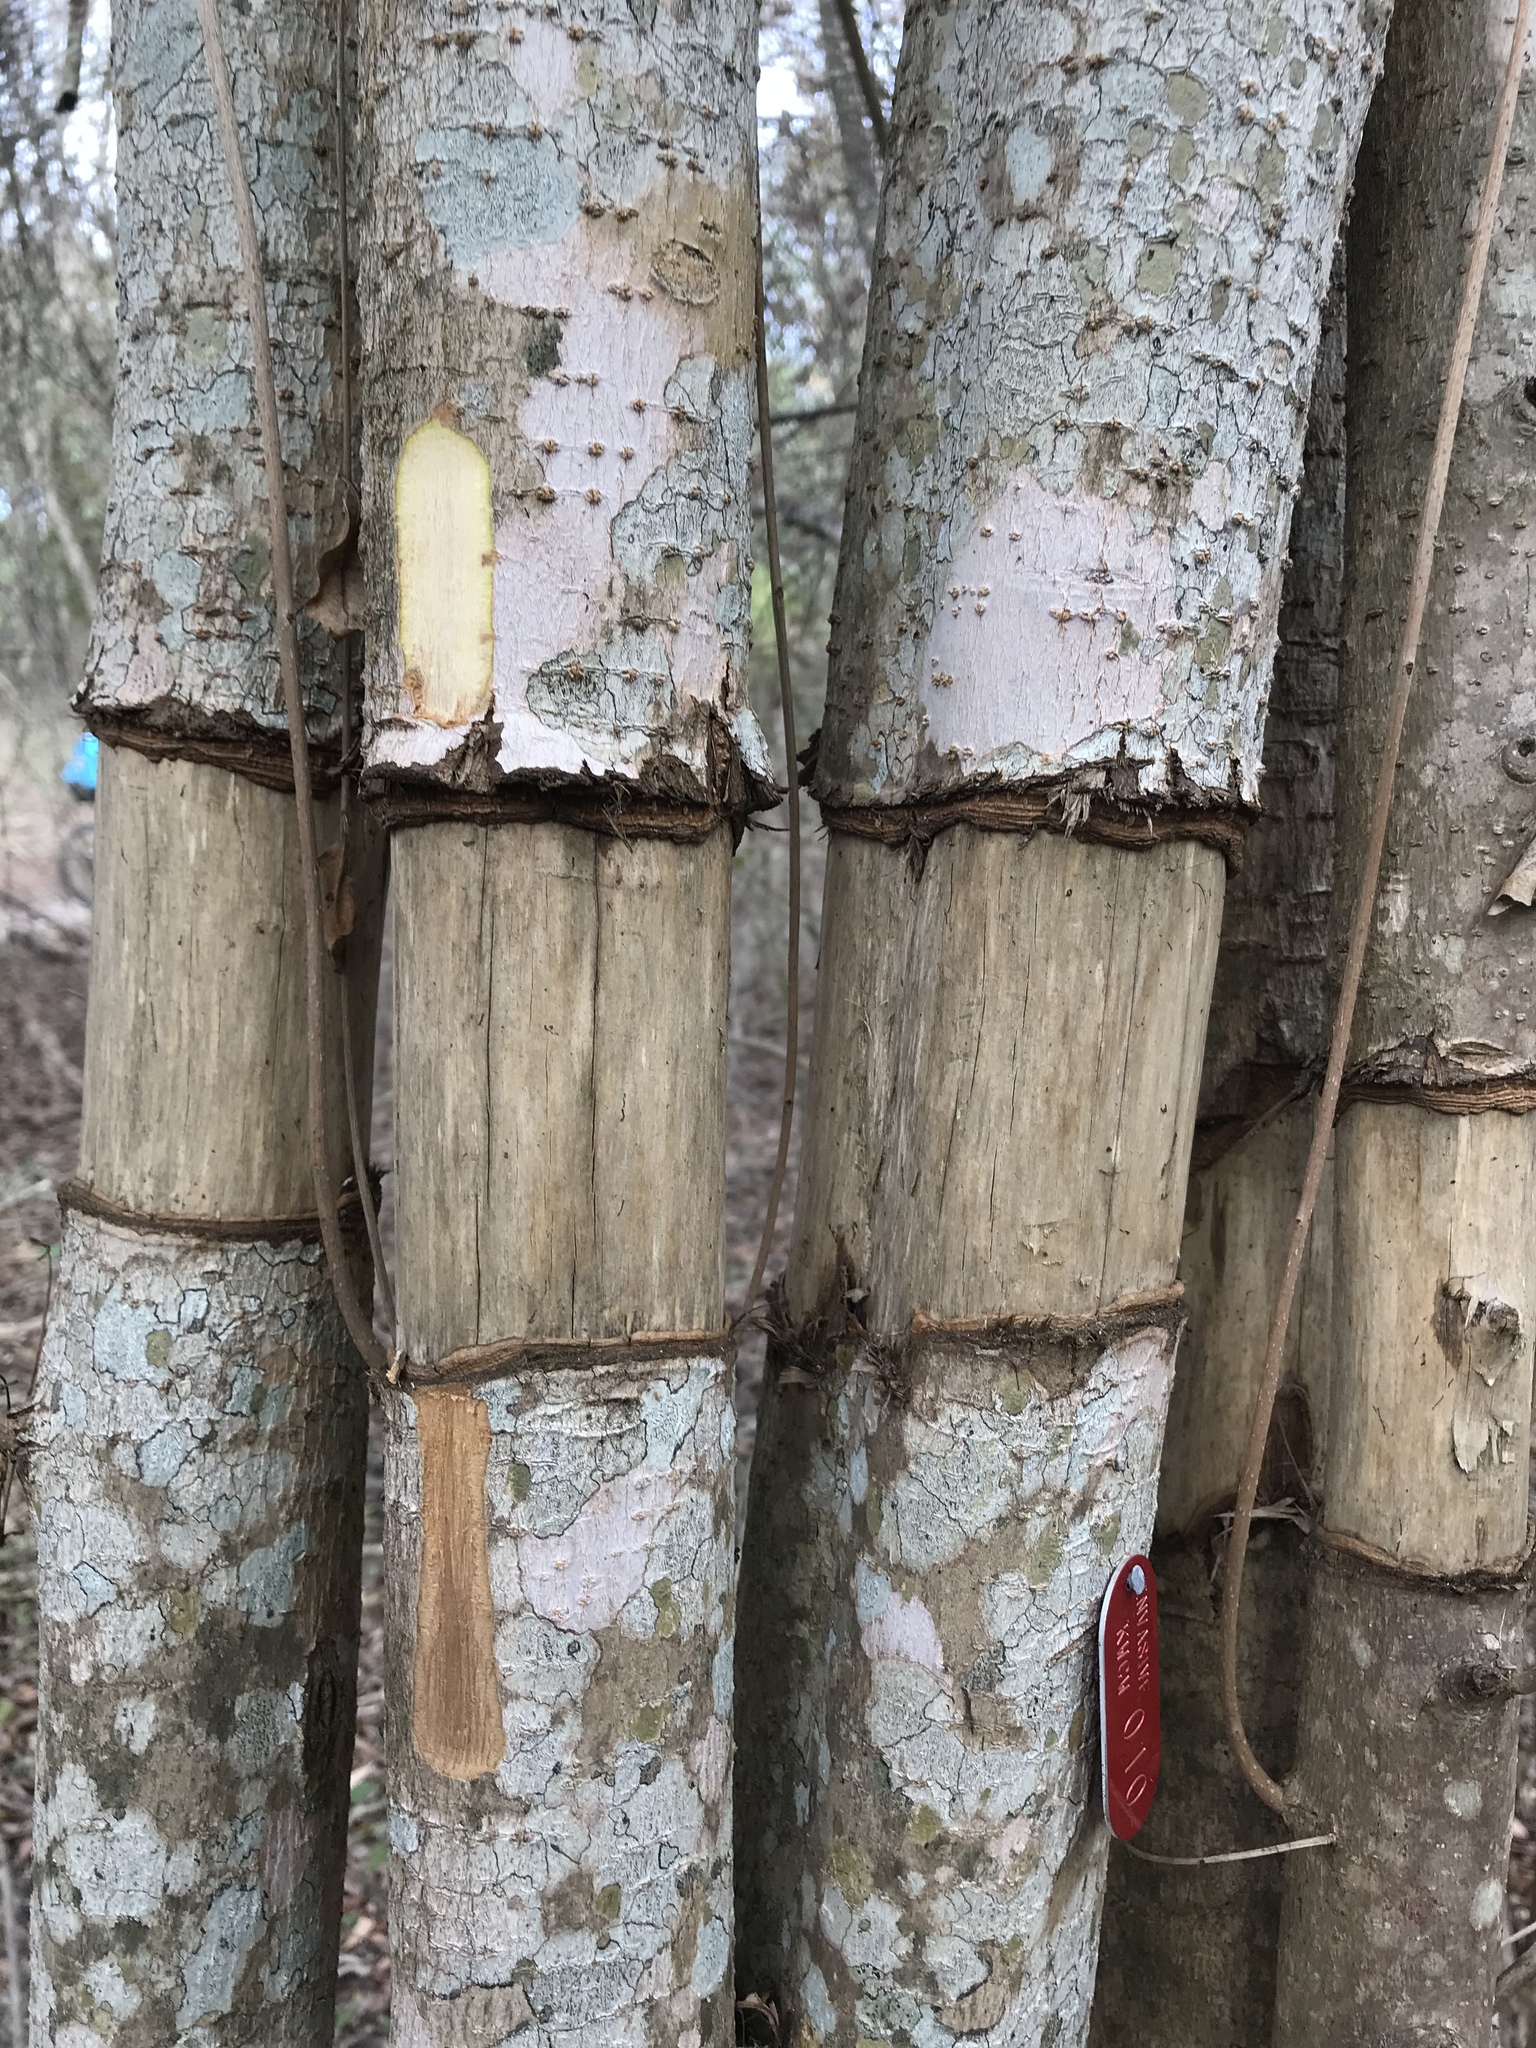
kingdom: Plantae
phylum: Tracheophyta
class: Magnoliopsida
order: Lamiales
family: Oleaceae
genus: Ligustrum
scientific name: Ligustrum lucidum
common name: Glossy privet
